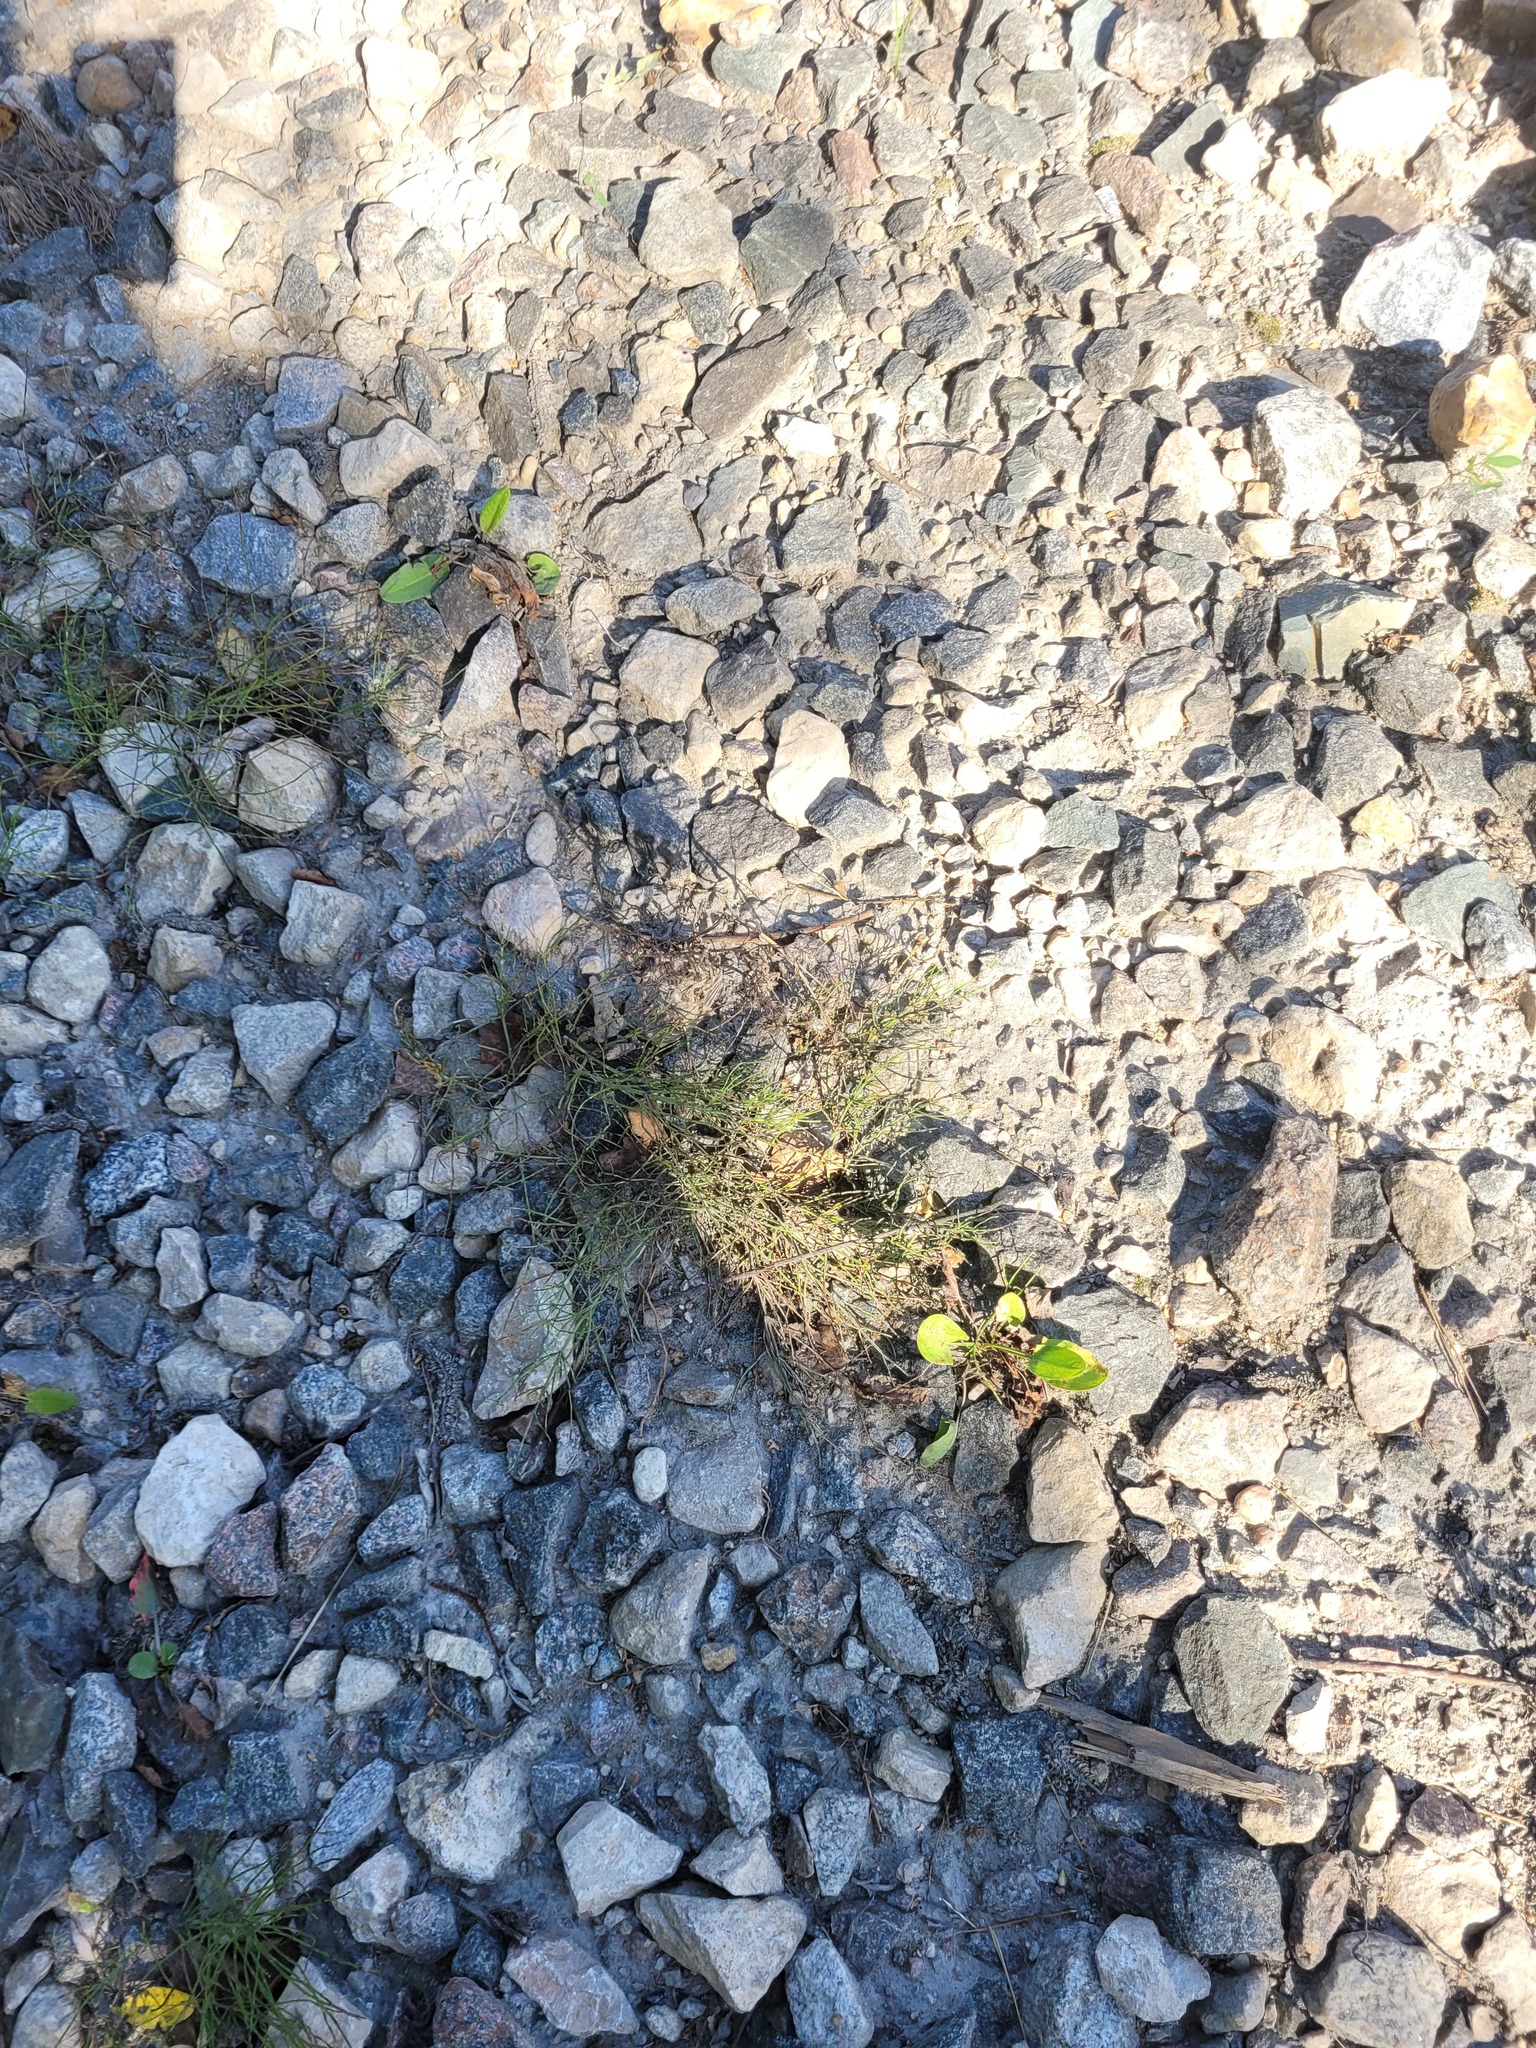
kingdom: Plantae
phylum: Tracheophyta
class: Polypodiopsida
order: Equisetales
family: Equisetaceae
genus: Equisetum
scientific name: Equisetum arvense
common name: Field horsetail
